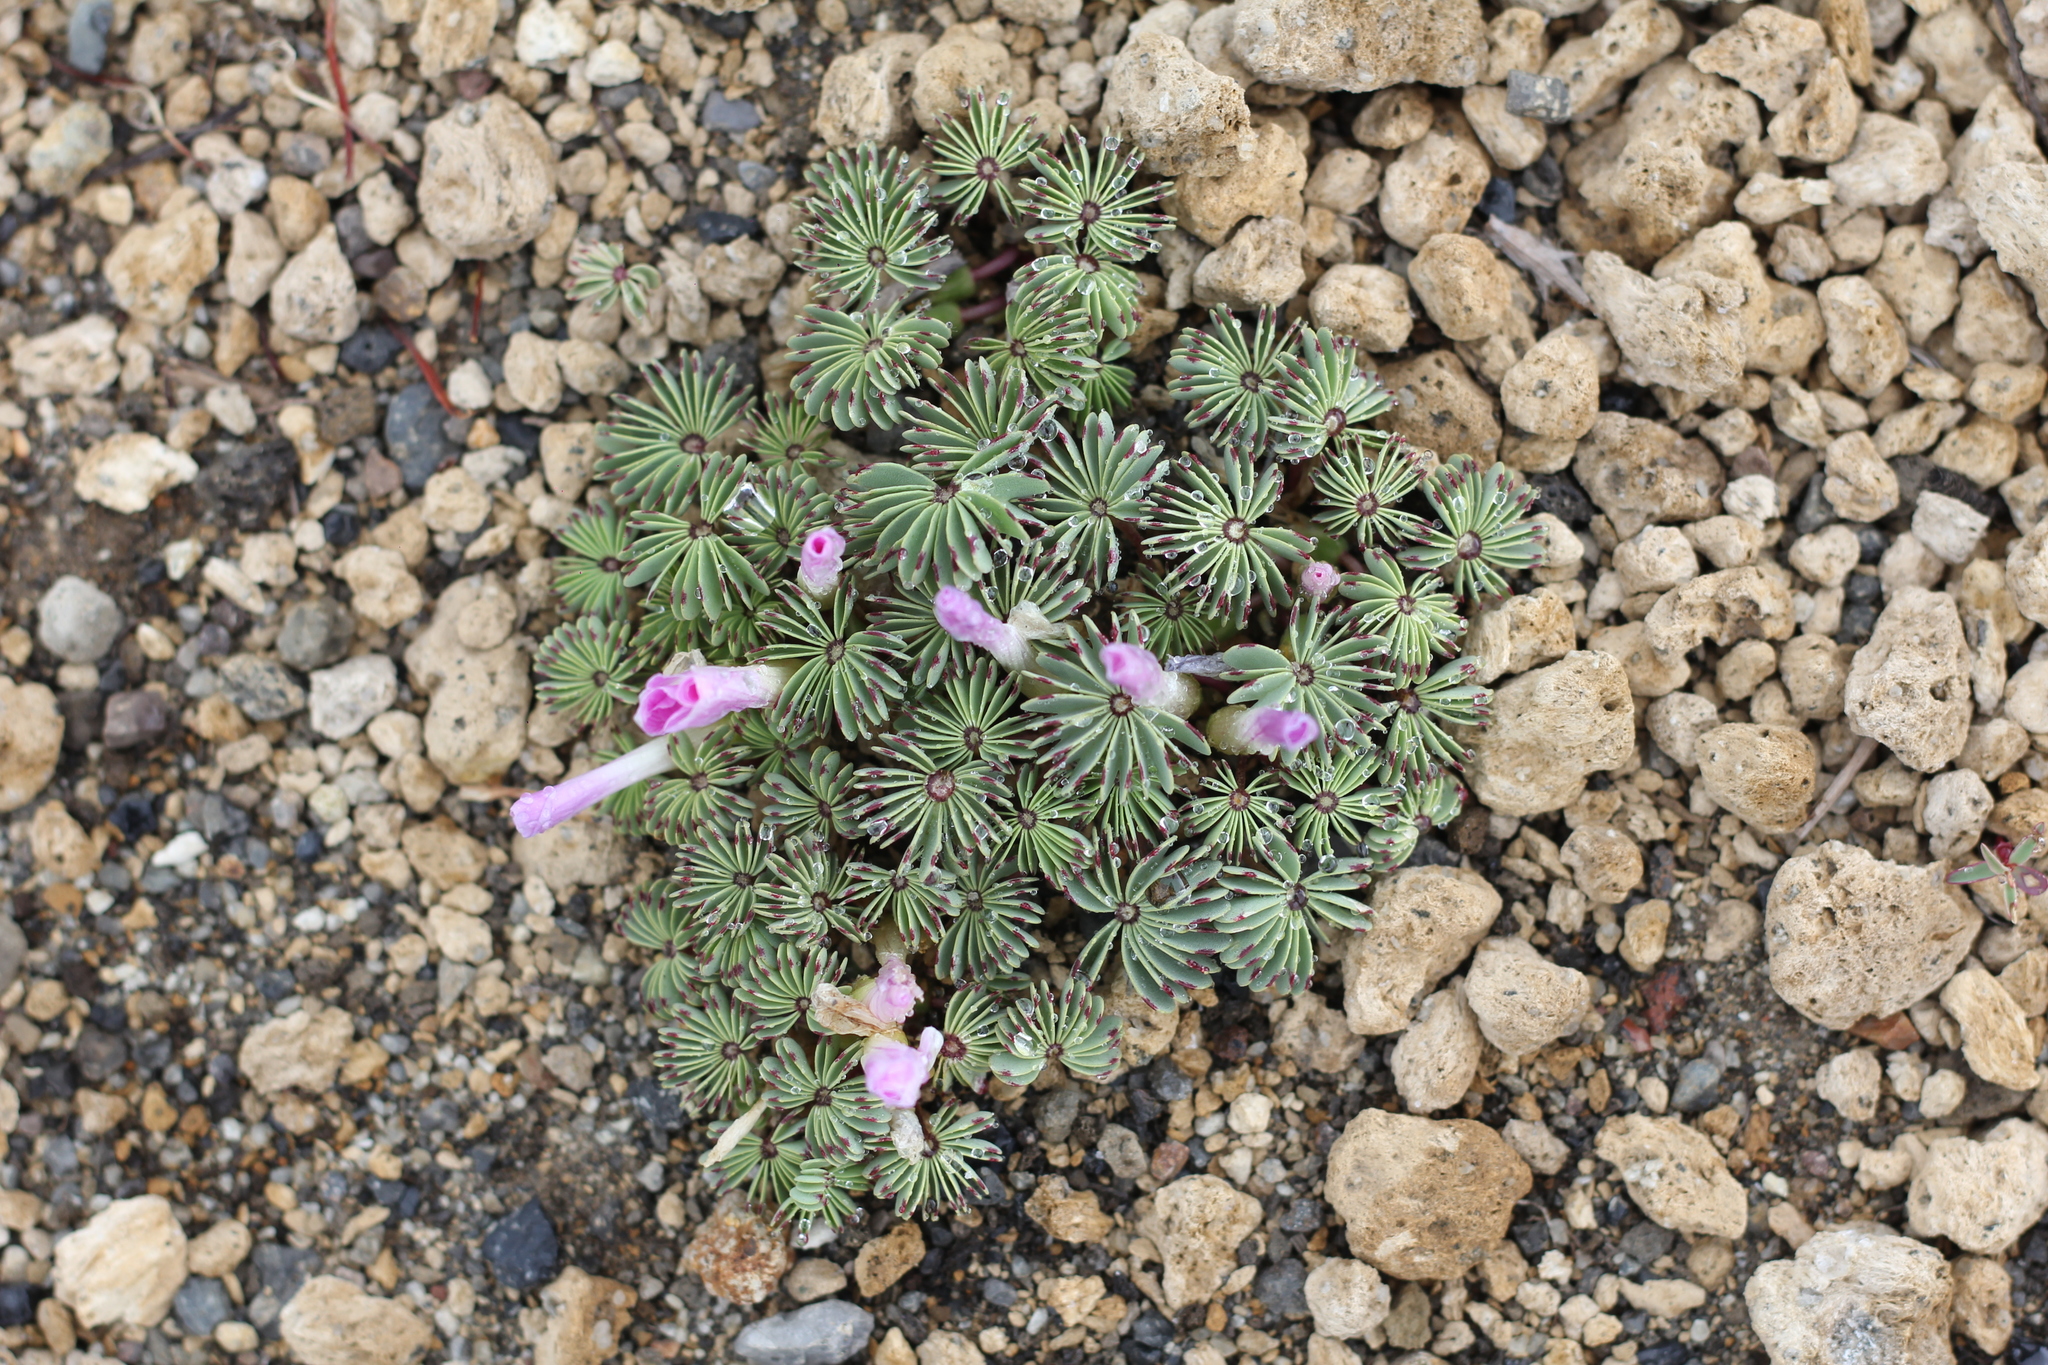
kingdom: Plantae
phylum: Tracheophyta
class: Magnoliopsida
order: Oxalidales
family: Oxalidaceae
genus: Oxalis
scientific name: Oxalis adenophylla
